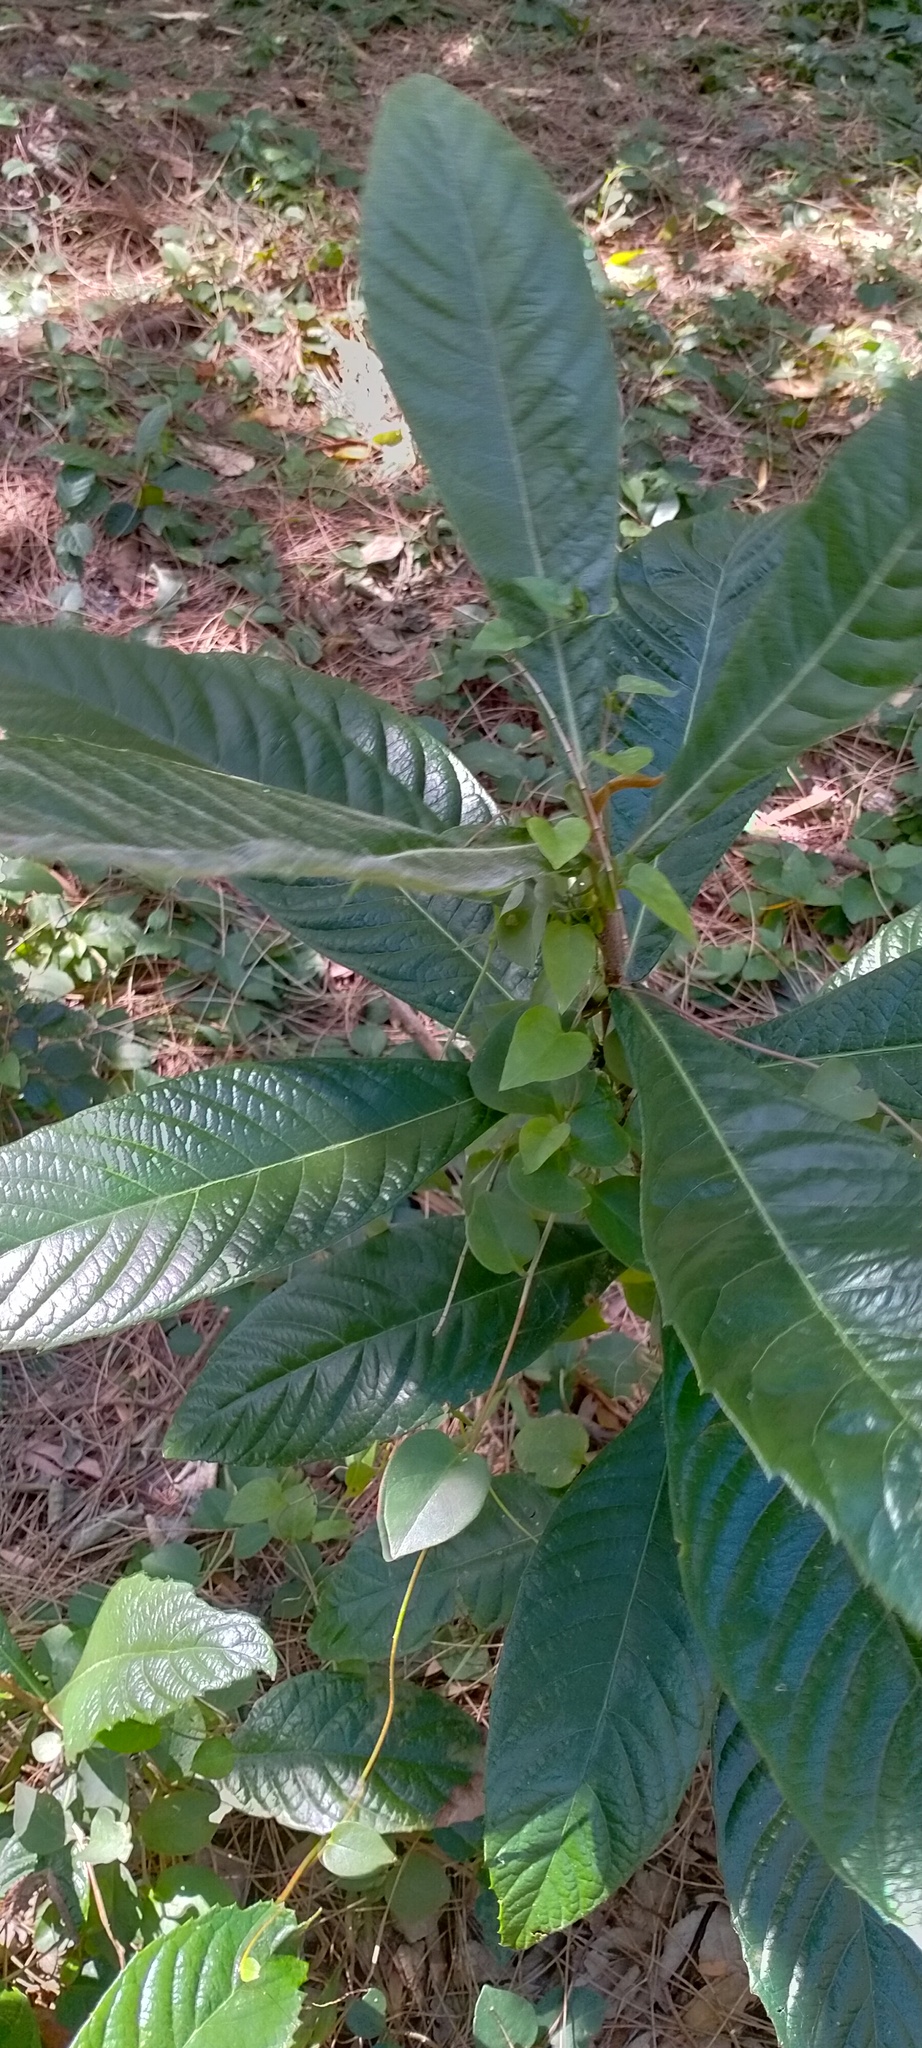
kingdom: Plantae
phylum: Tracheophyta
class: Magnoliopsida
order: Rosales
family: Rosaceae
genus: Rhaphiolepis
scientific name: Rhaphiolepis bibas
